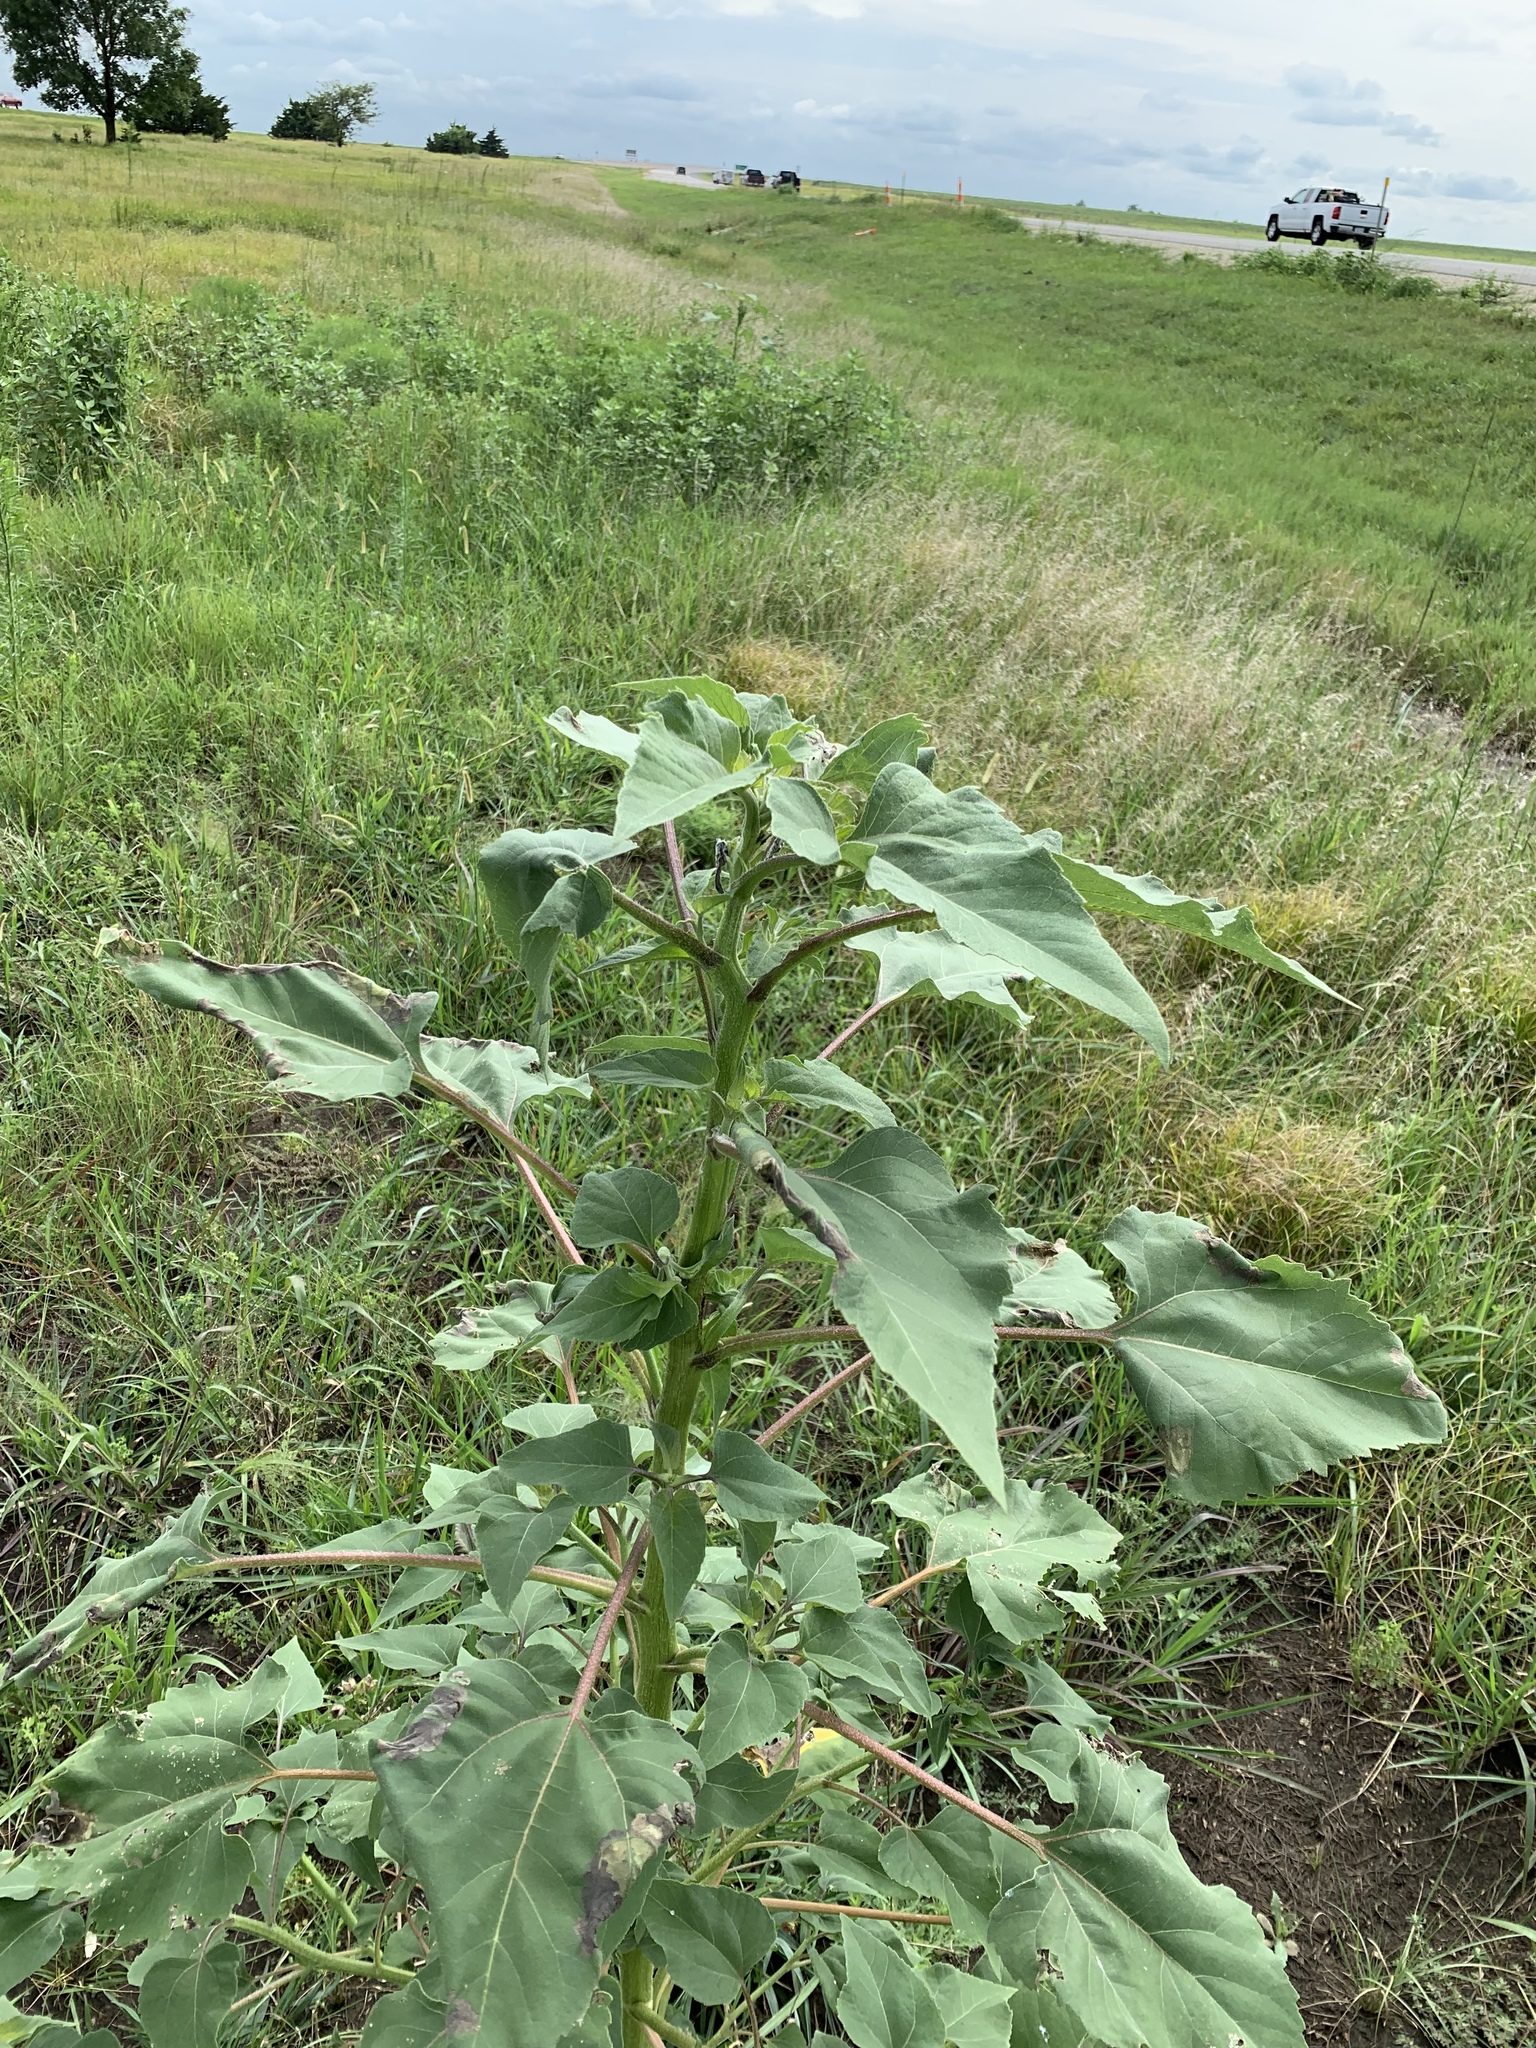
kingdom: Plantae
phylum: Tracheophyta
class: Magnoliopsida
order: Asterales
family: Asteraceae
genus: Xanthium
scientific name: Xanthium strumarium
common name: Rough cocklebur
